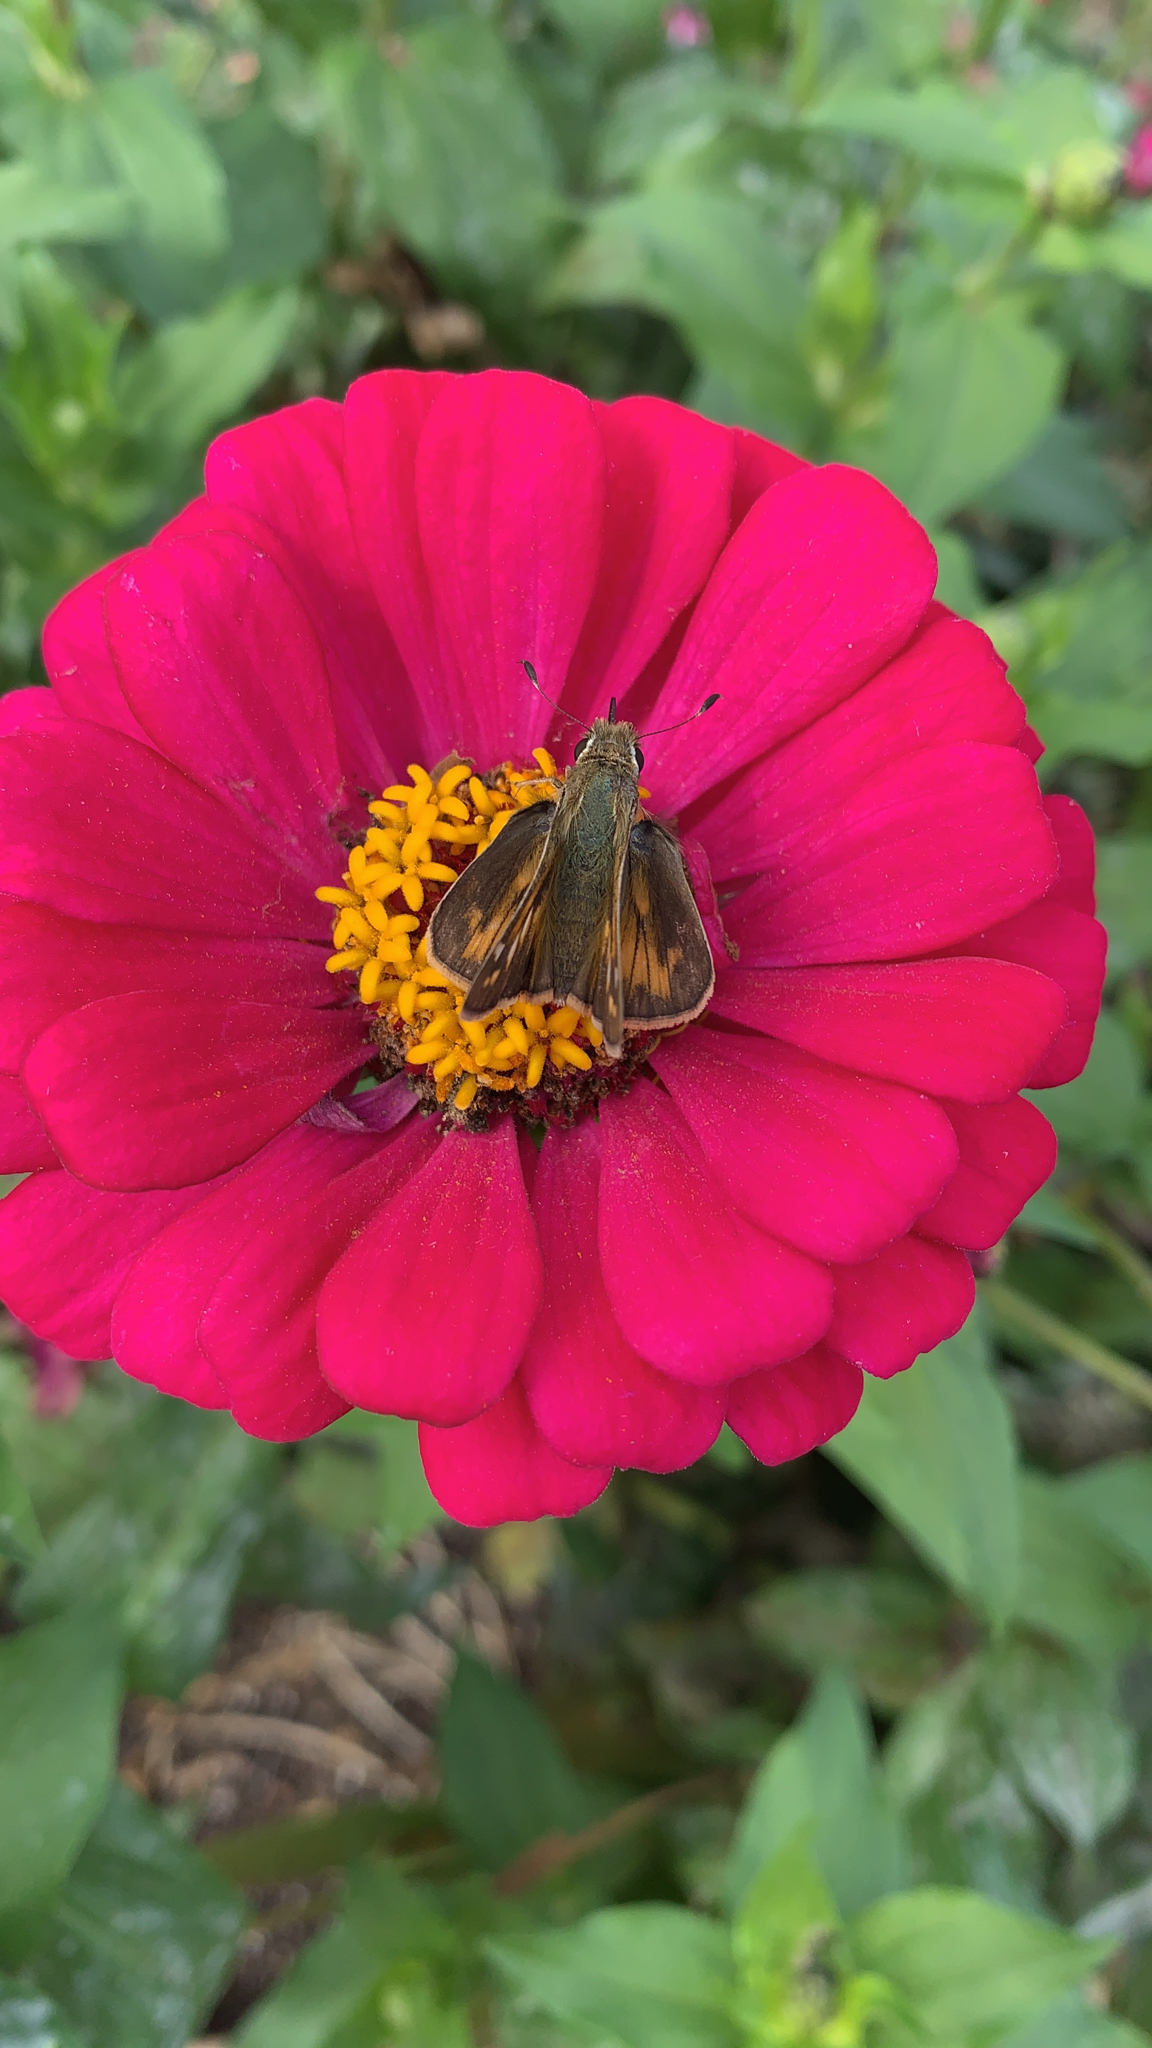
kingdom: Animalia
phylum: Arthropoda
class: Insecta
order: Lepidoptera
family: Hesperiidae
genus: Atalopedes
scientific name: Atalopedes
